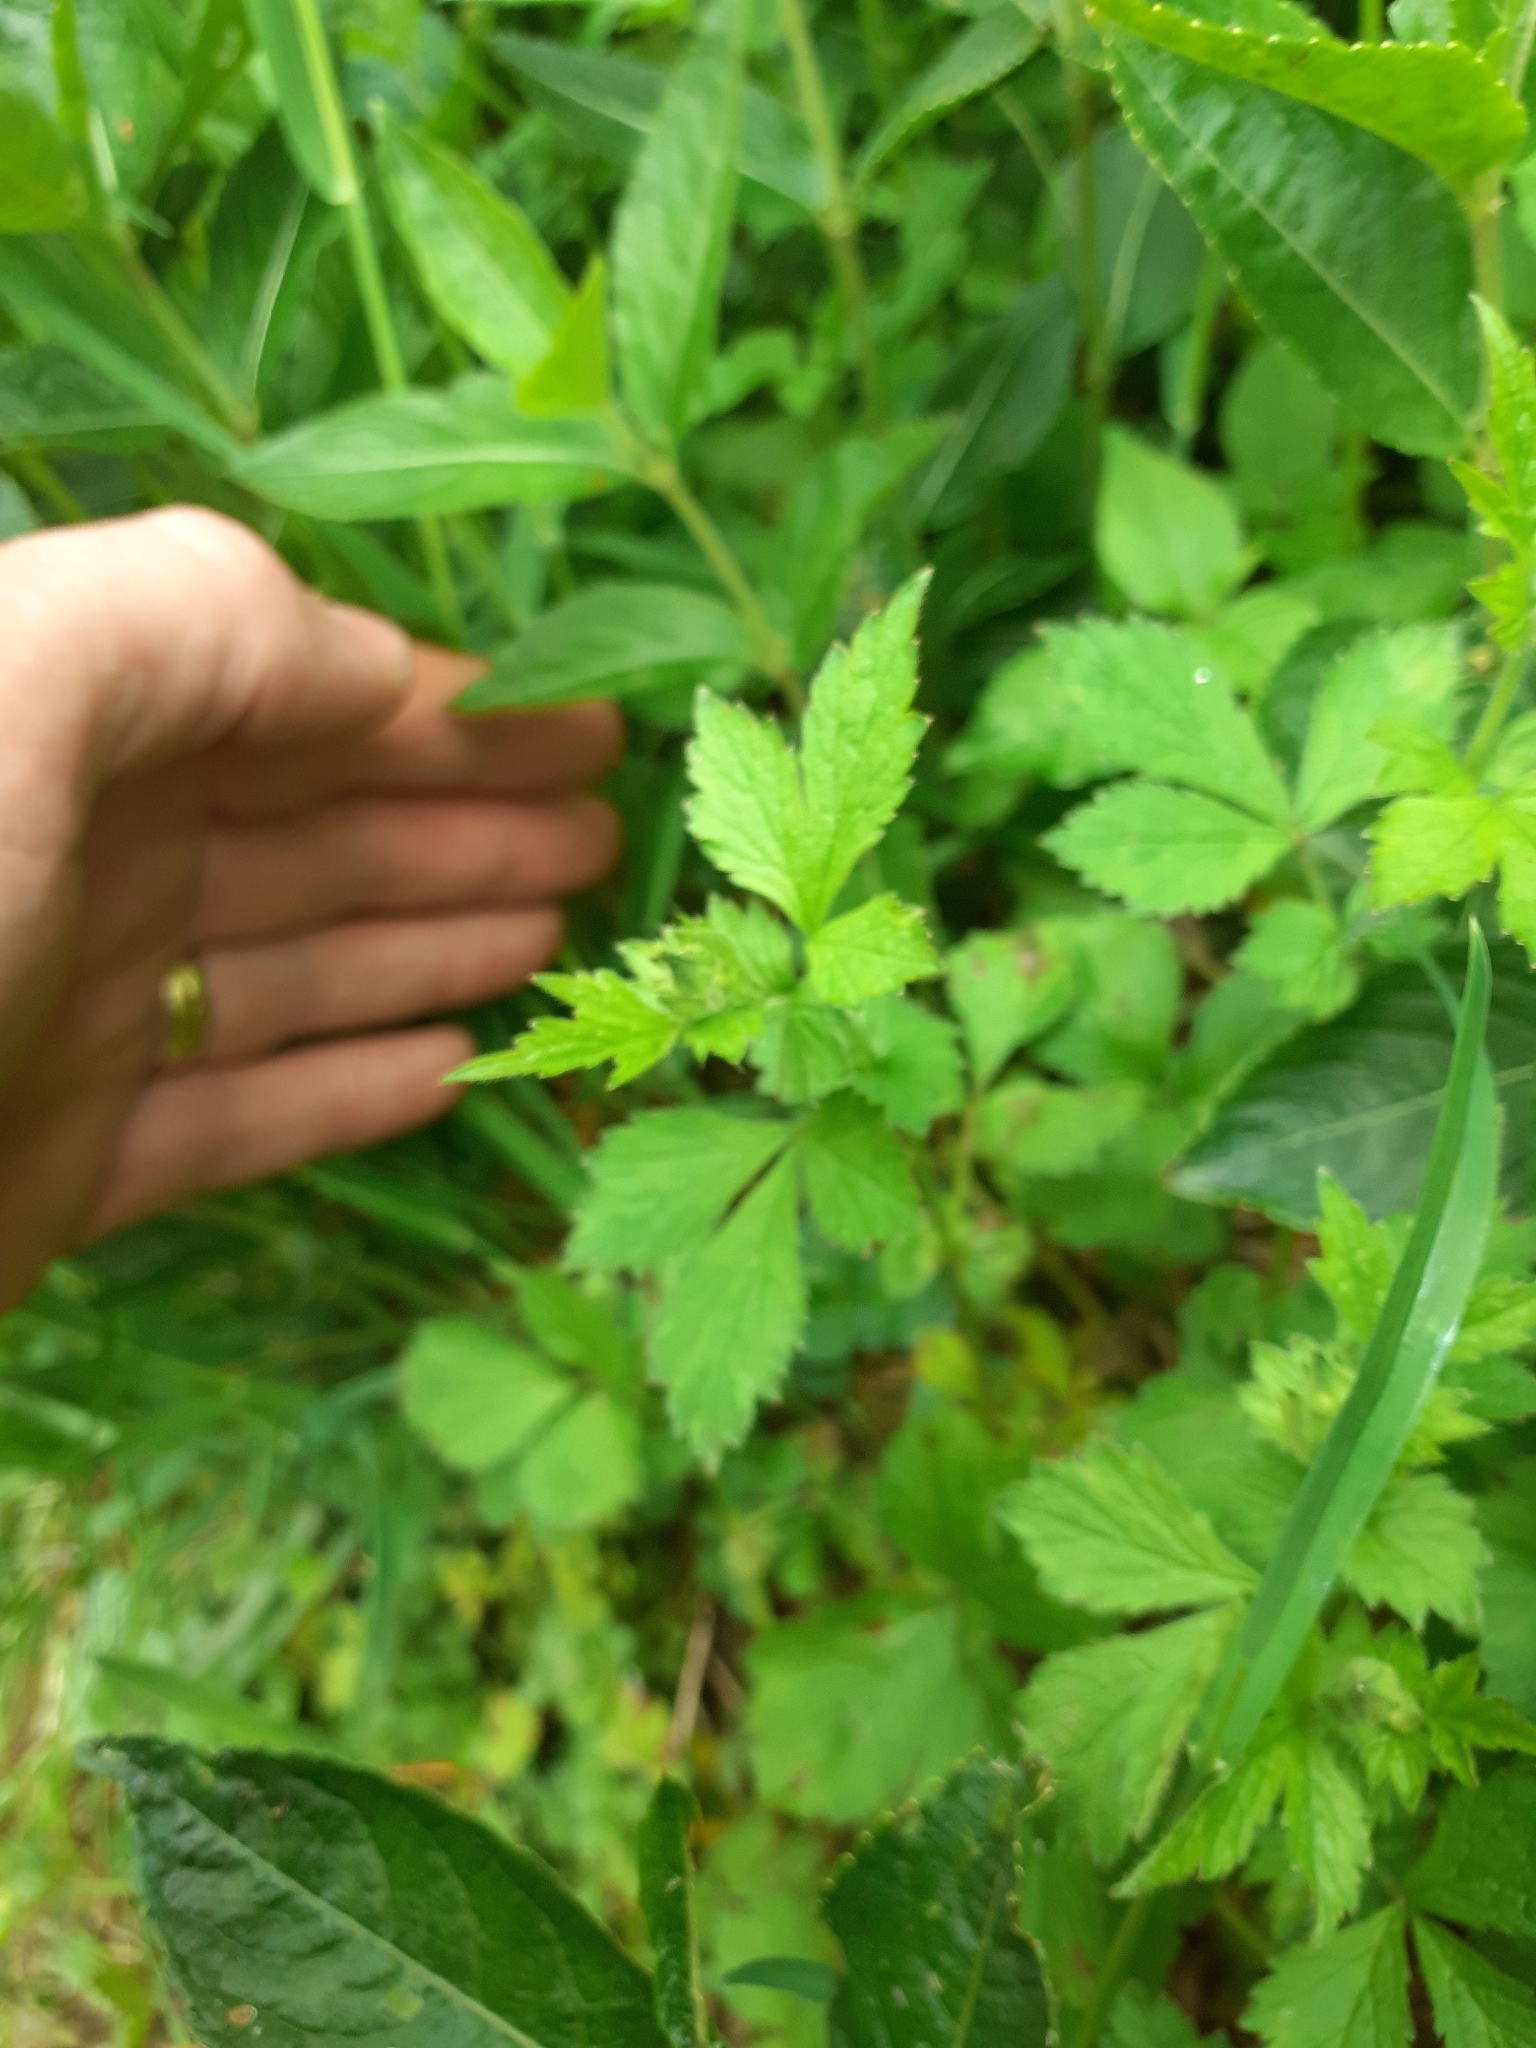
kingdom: Plantae
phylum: Tracheophyta
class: Magnoliopsida
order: Rosales
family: Rosaceae
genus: Geum
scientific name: Geum urbanum
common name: Wood avens
